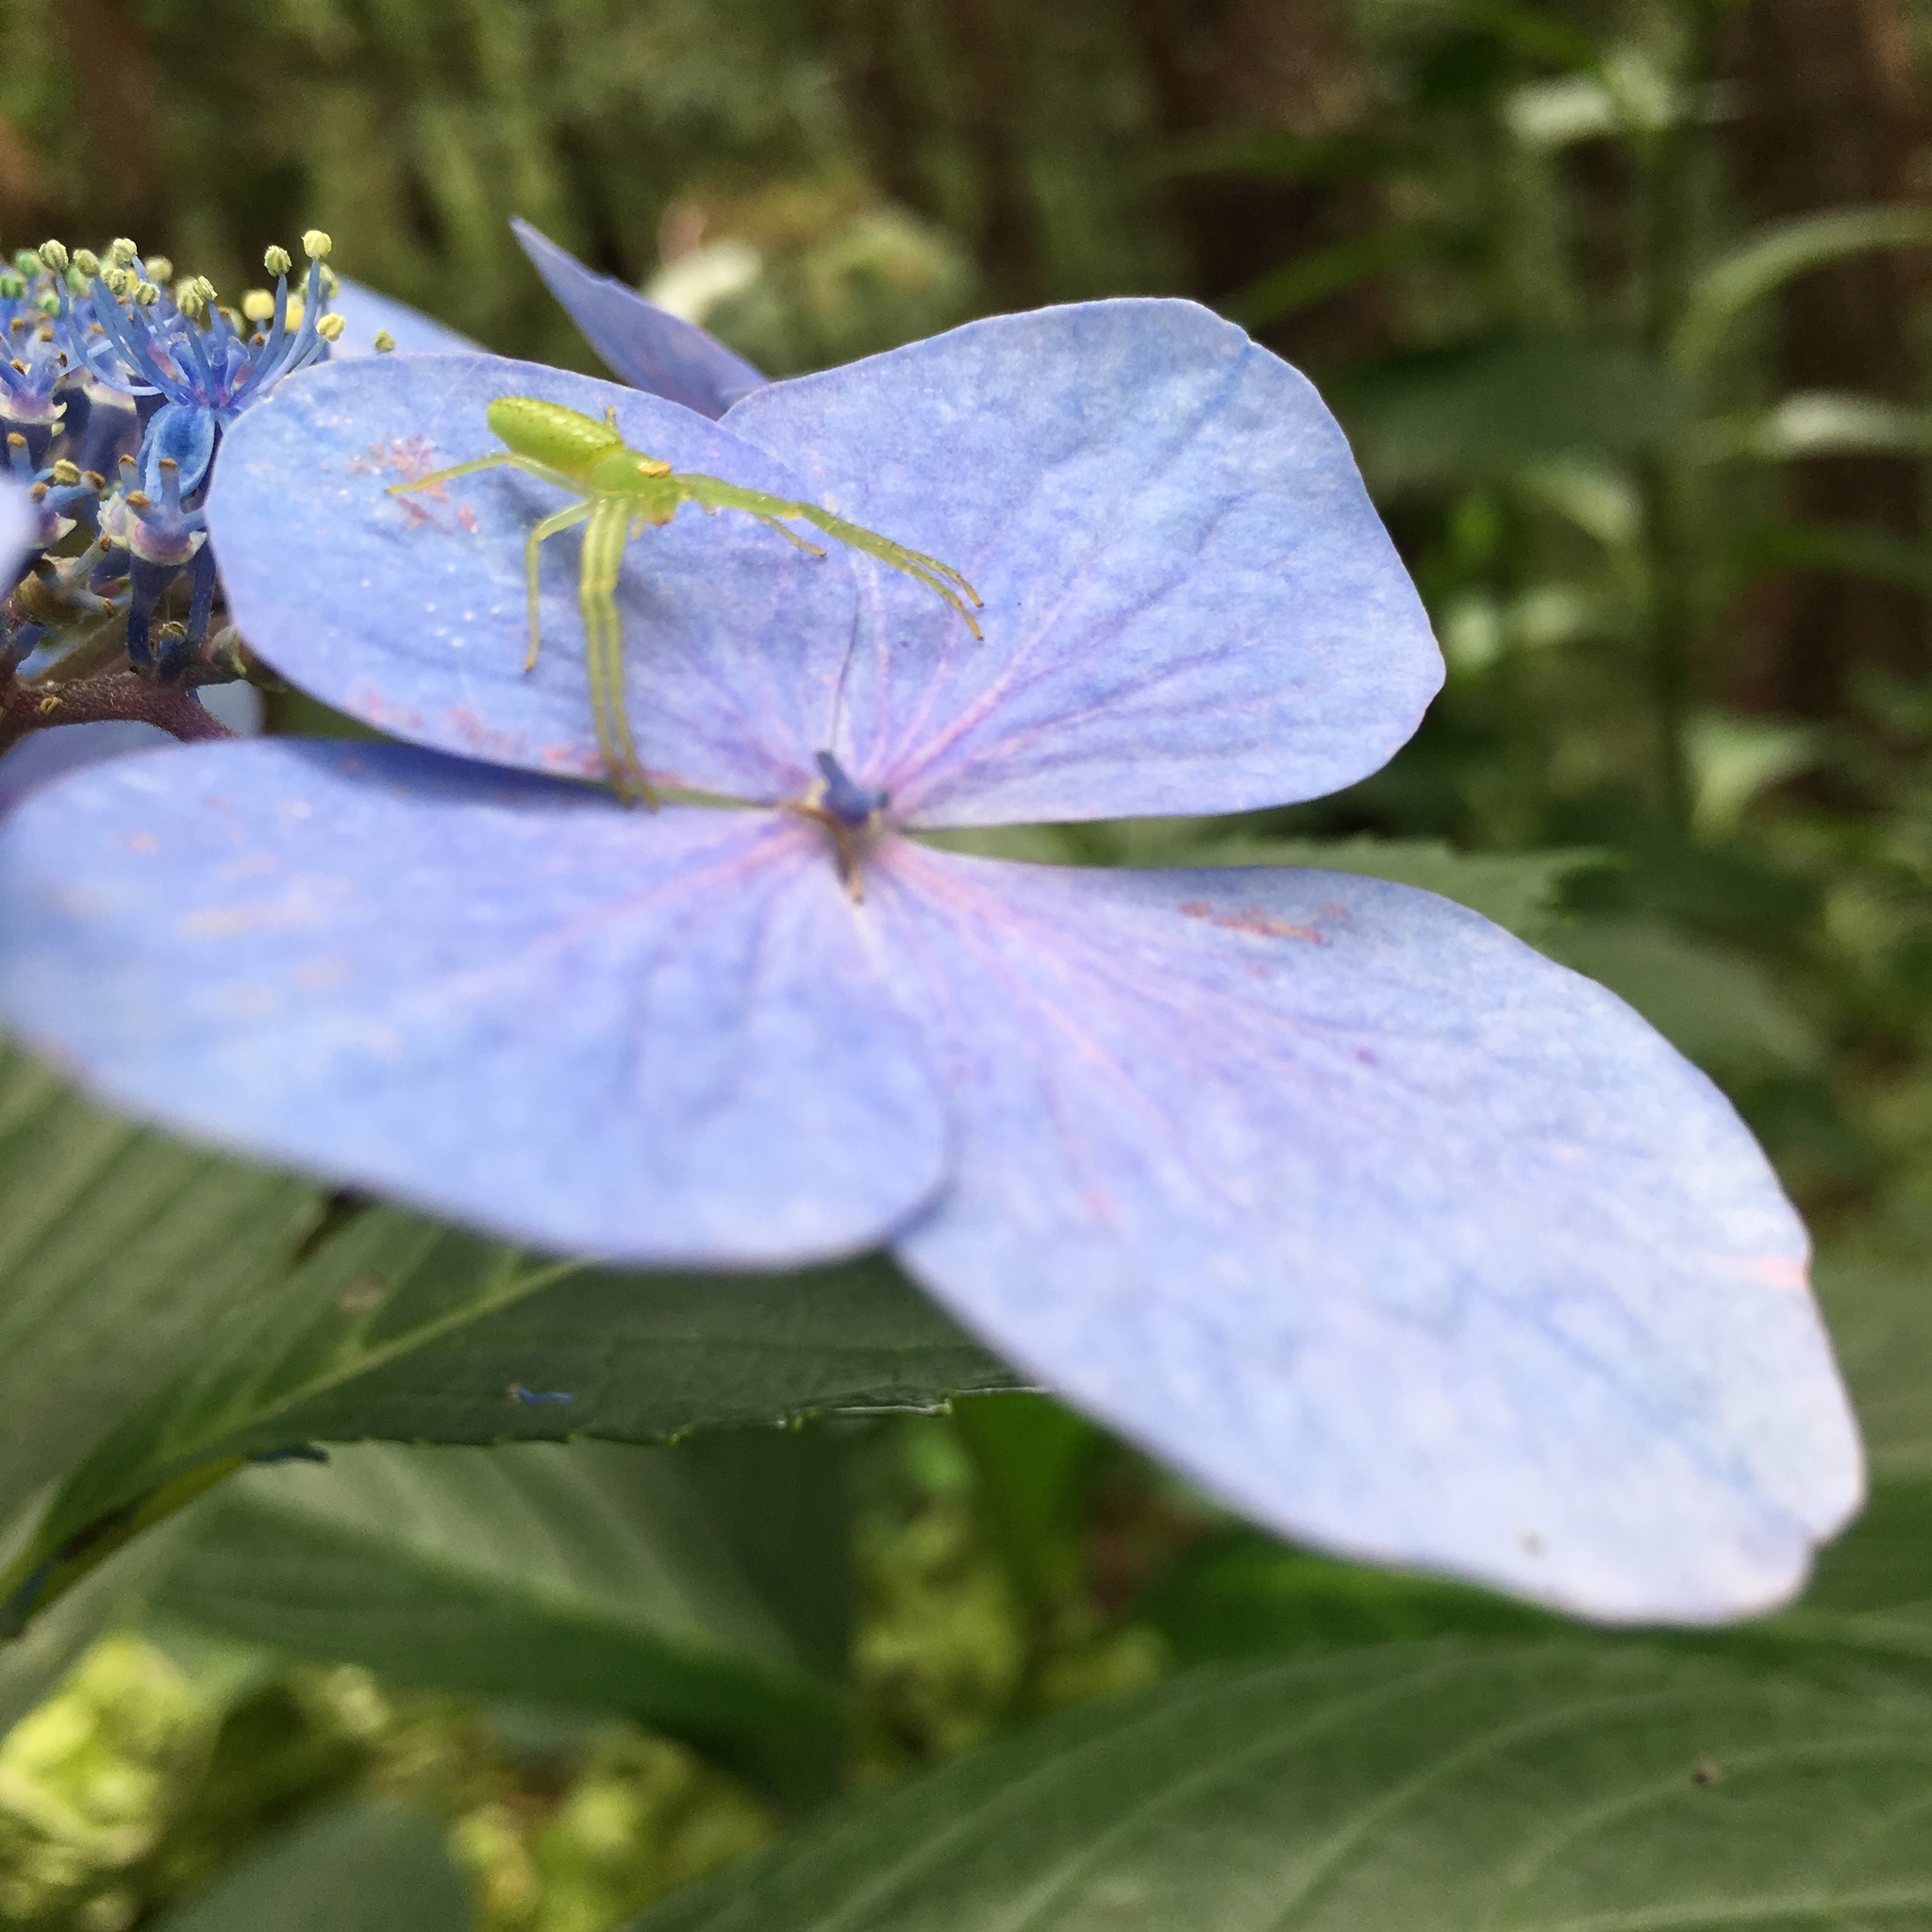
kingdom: Animalia
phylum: Arthropoda
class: Arachnida
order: Araneae
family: Thomisidae
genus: Oxytate
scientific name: Oxytate striatipes
